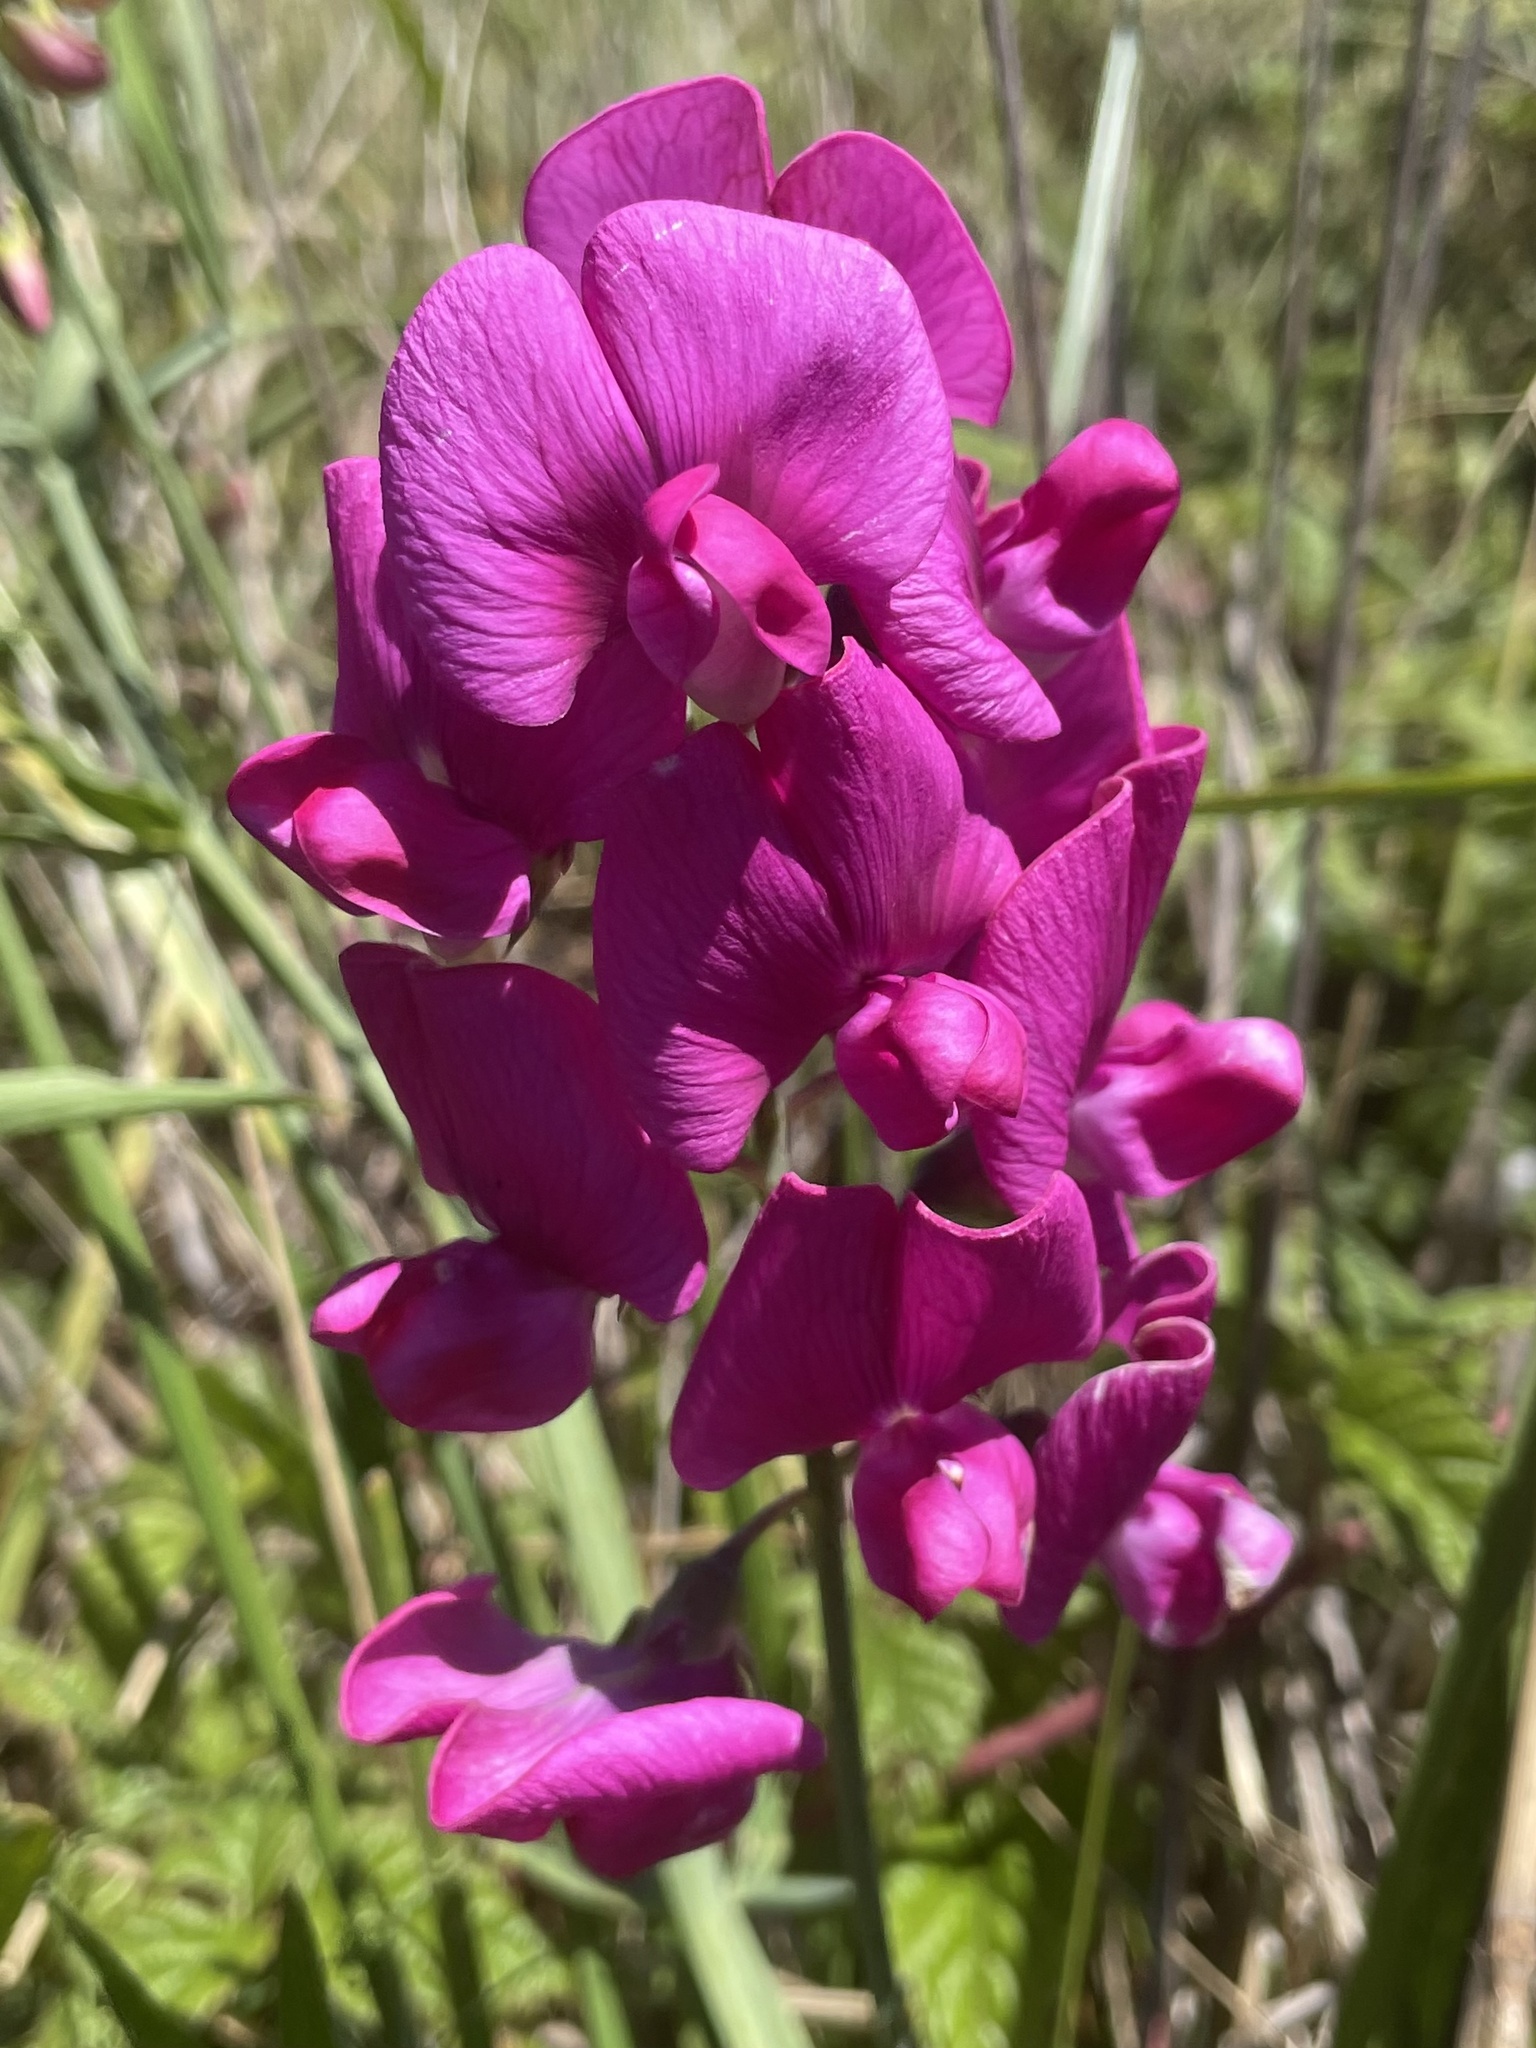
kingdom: Plantae
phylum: Tracheophyta
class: Magnoliopsida
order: Fabales
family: Fabaceae
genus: Lathyrus
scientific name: Lathyrus latifolius
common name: Perennial pea
